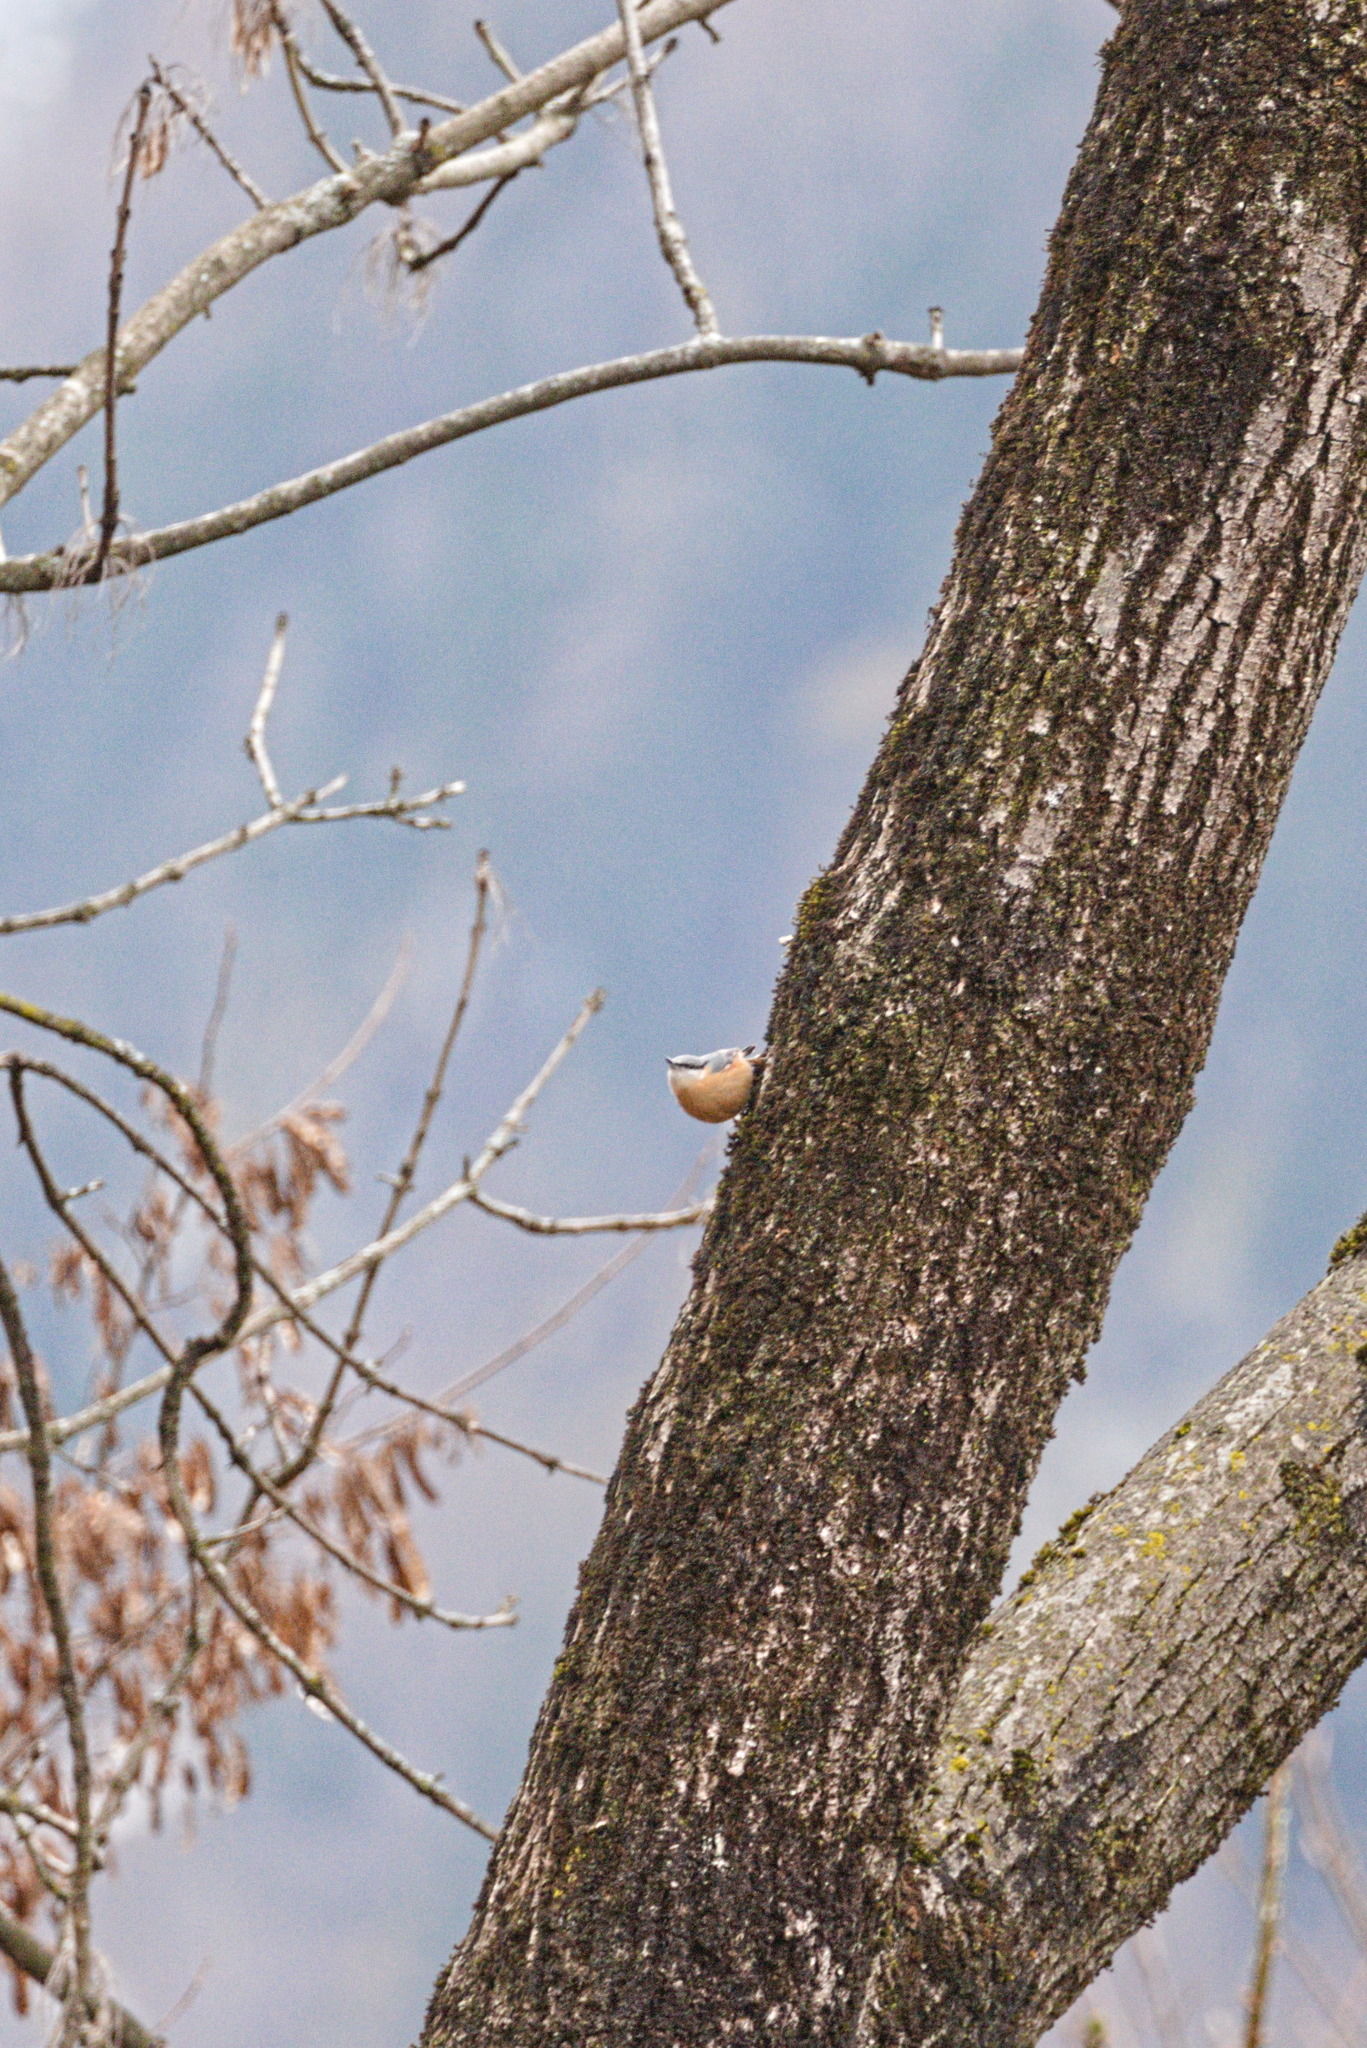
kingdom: Animalia
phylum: Chordata
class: Aves
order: Passeriformes
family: Sittidae
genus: Sitta
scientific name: Sitta europaea
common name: Eurasian nuthatch
